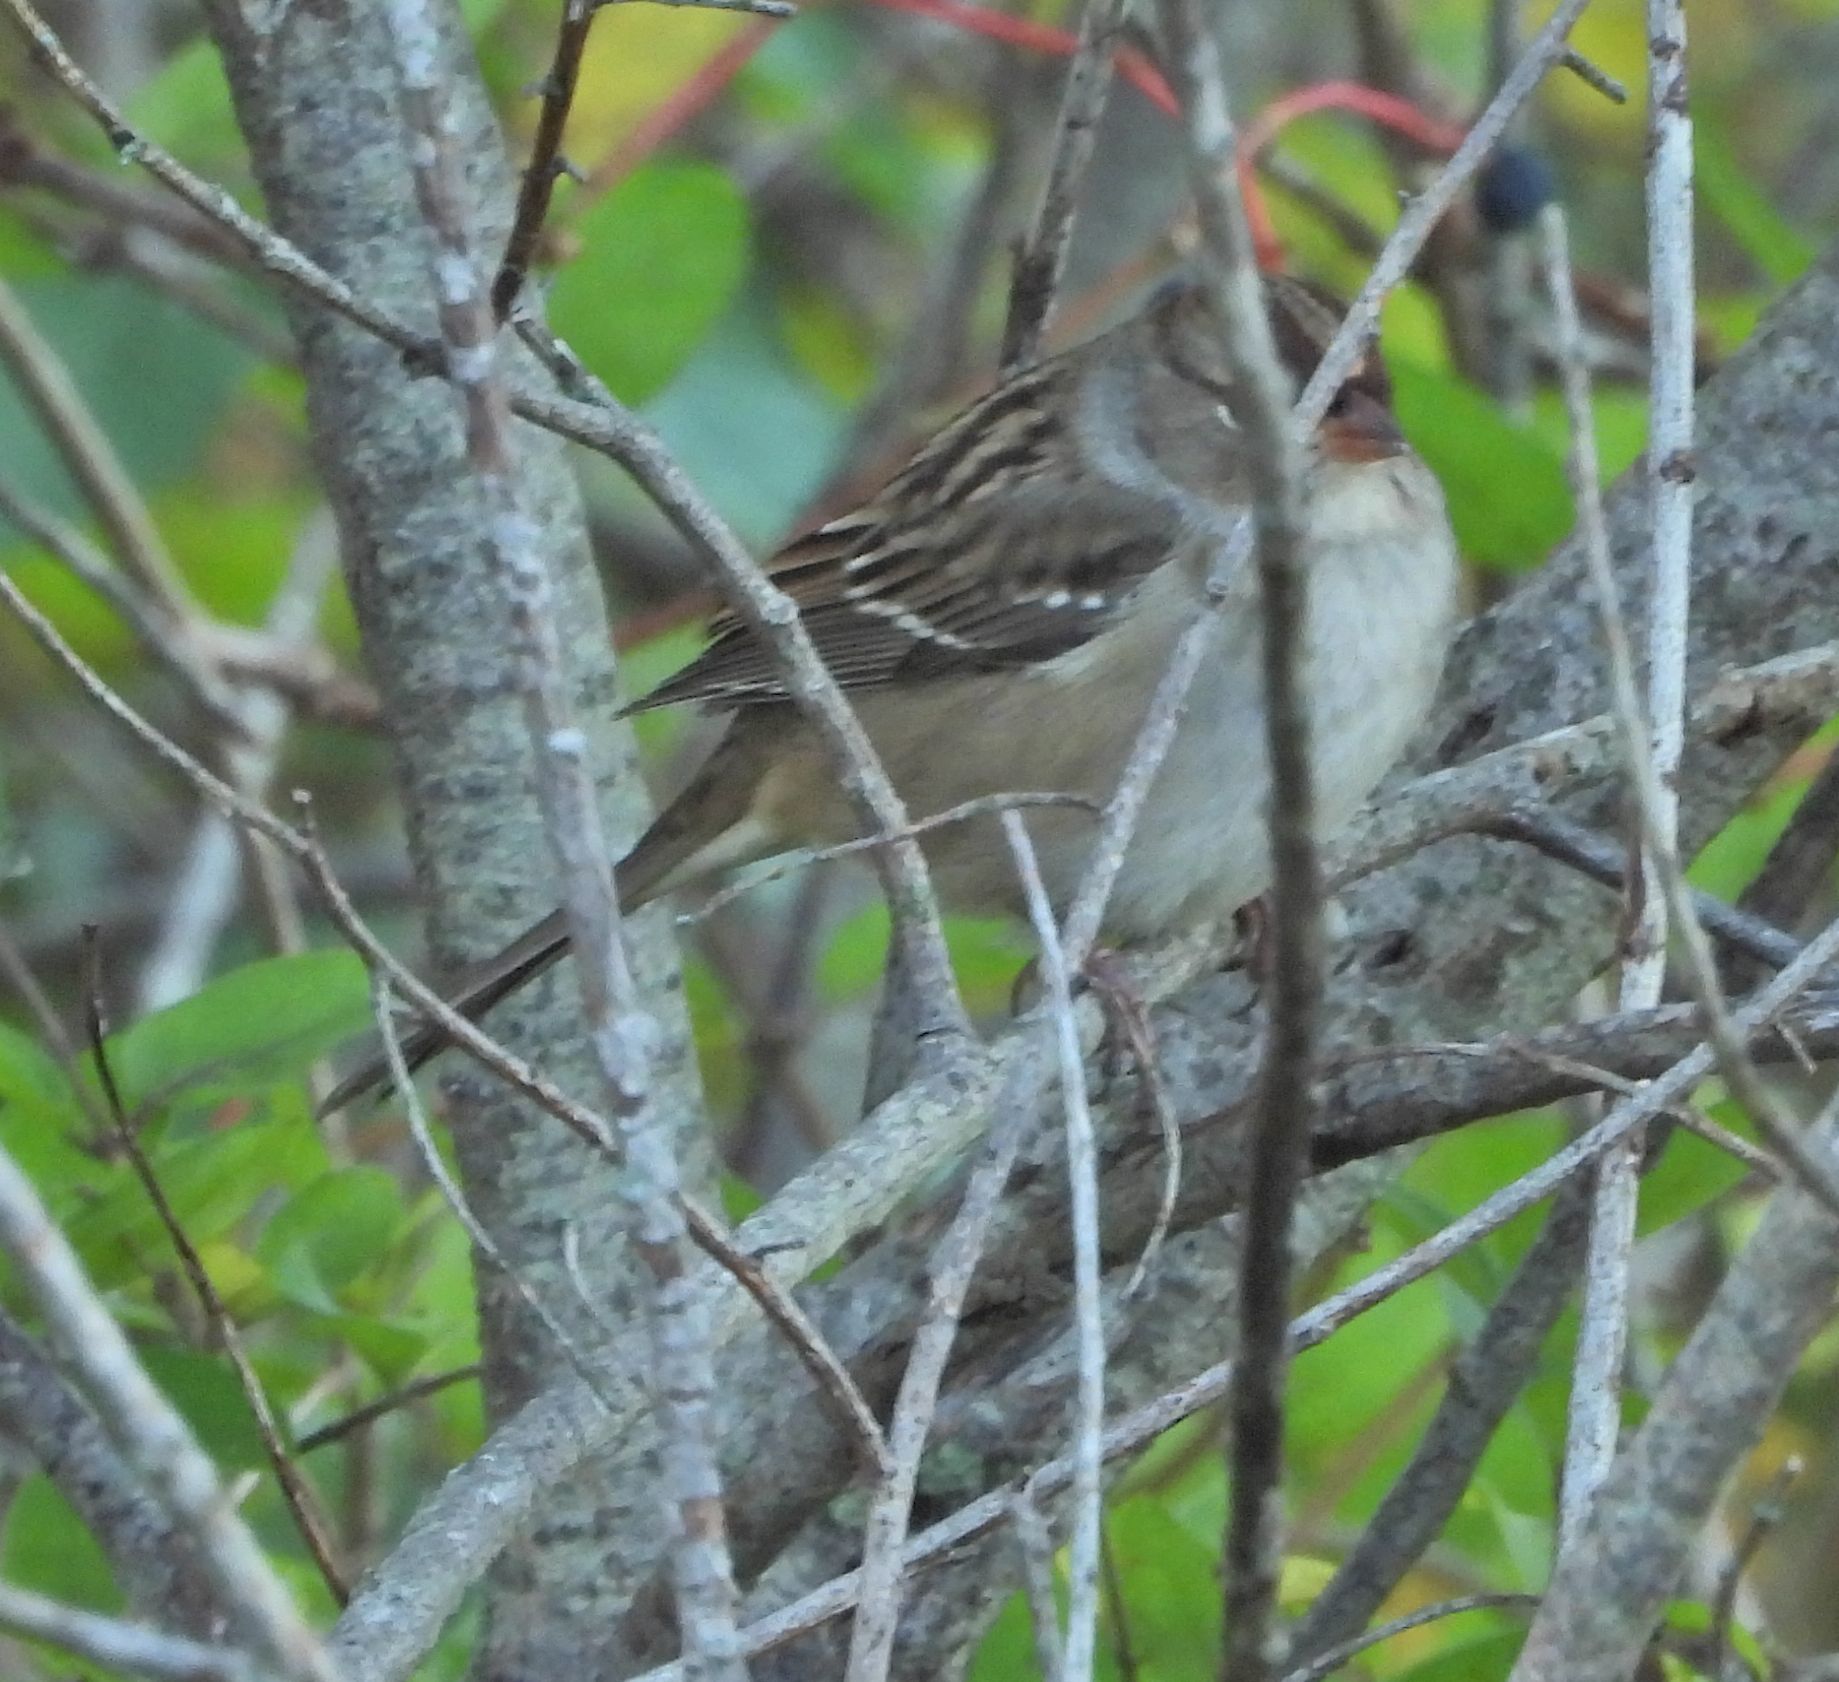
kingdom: Animalia
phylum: Chordata
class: Aves
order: Passeriformes
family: Passerellidae
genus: Zonotrichia
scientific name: Zonotrichia leucophrys
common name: White-crowned sparrow
